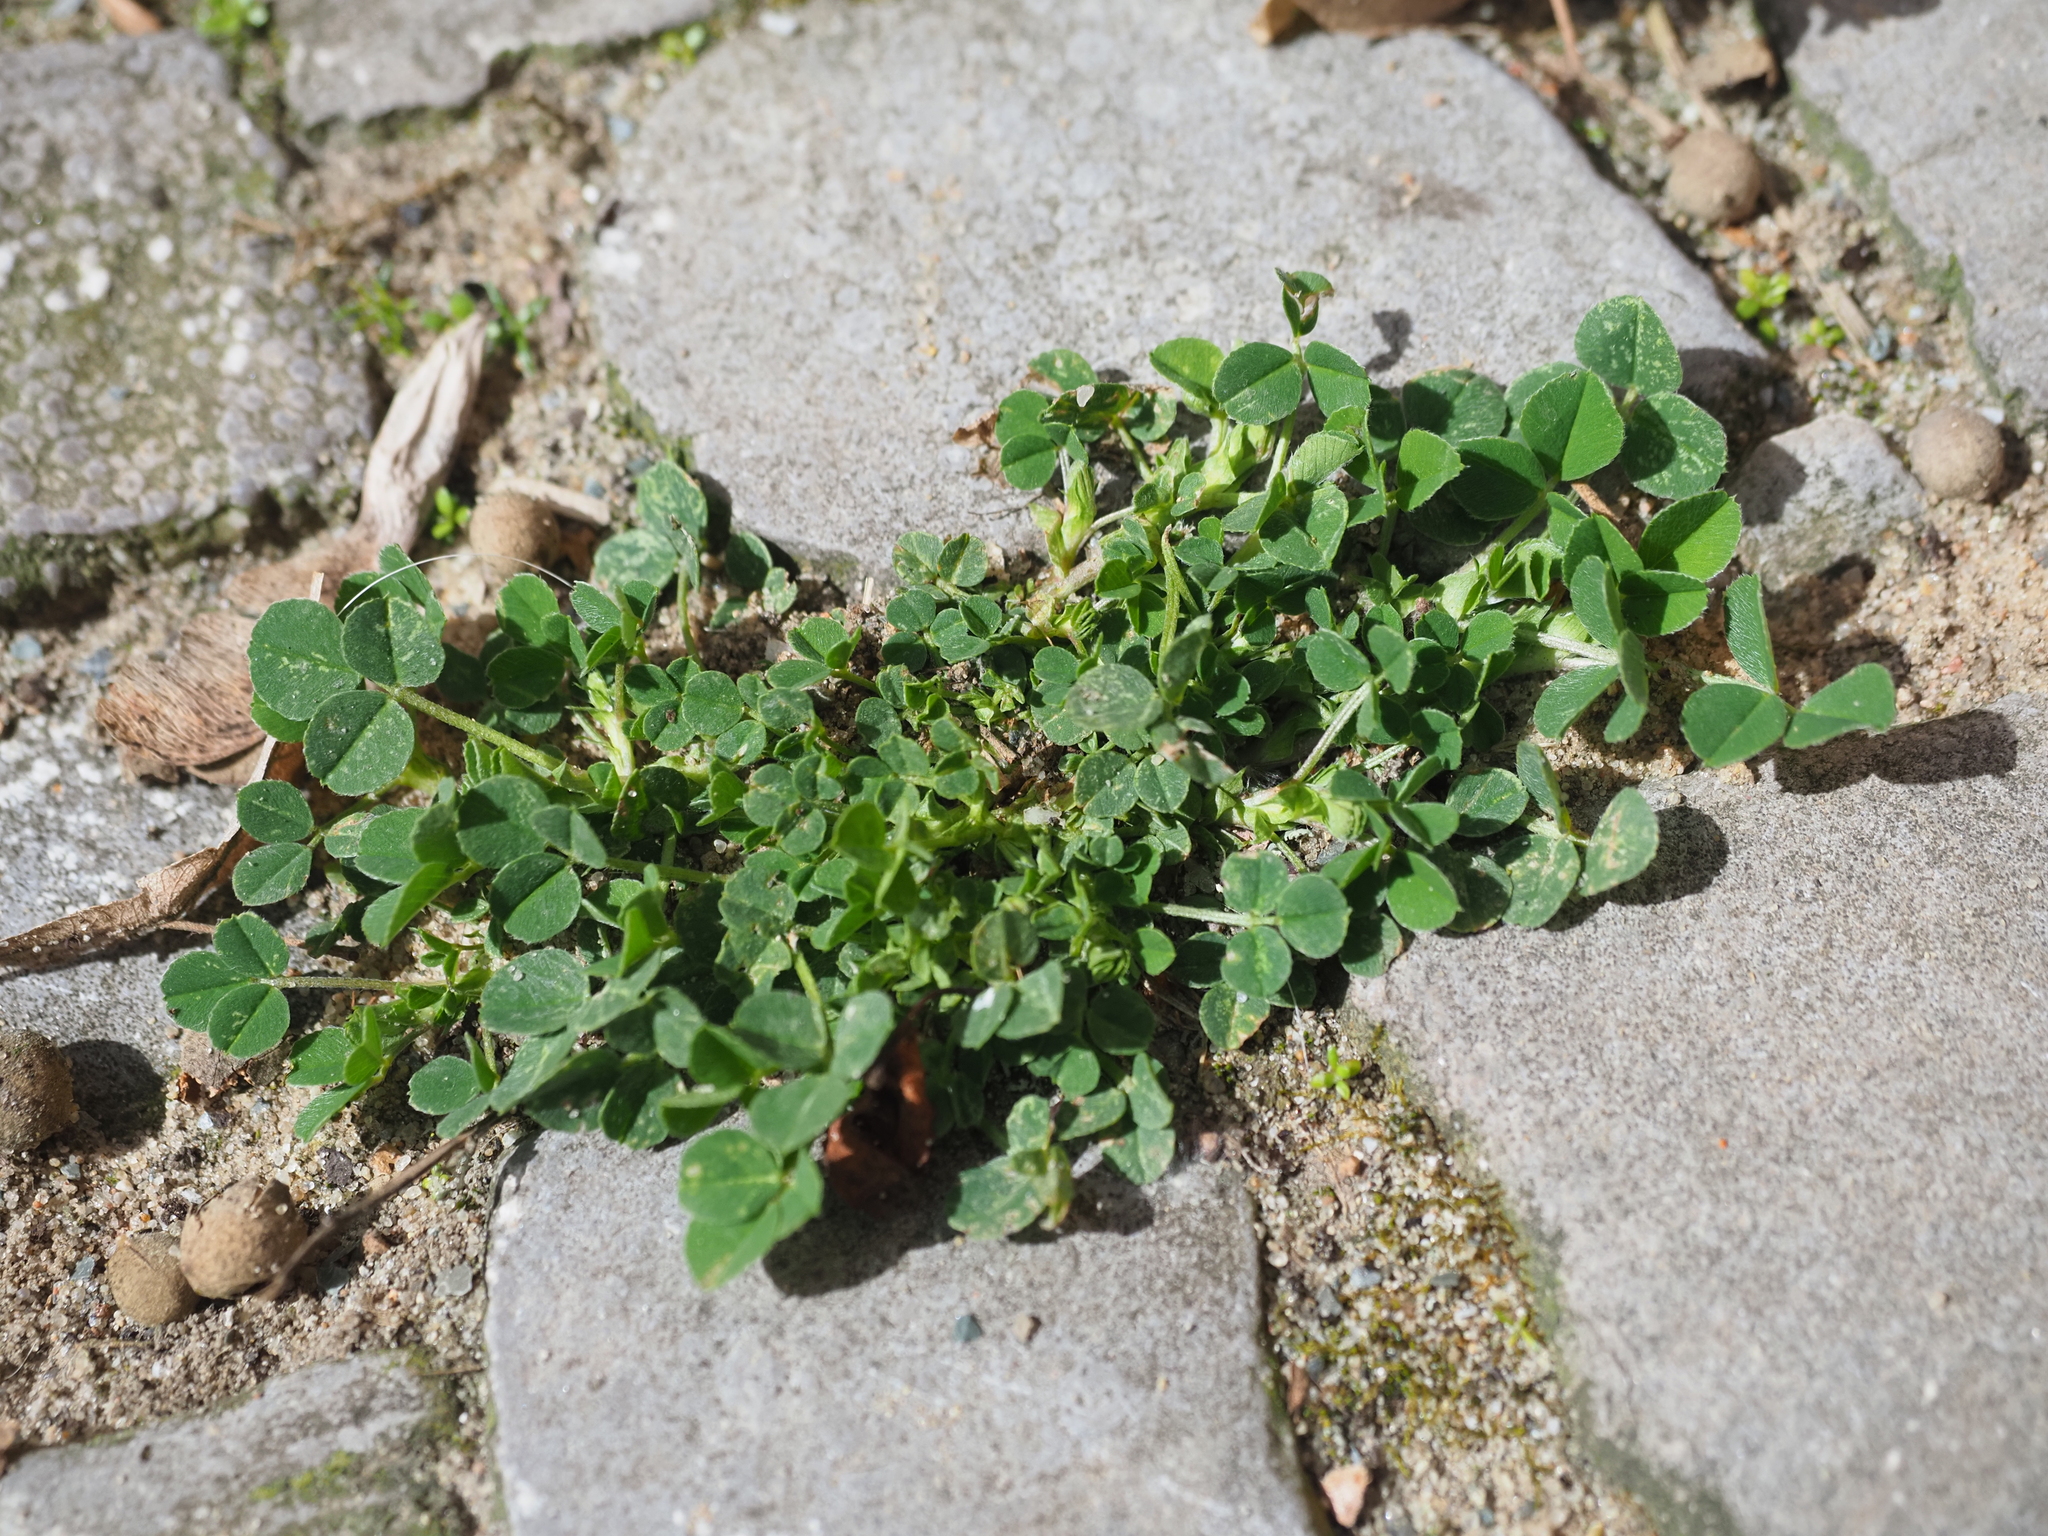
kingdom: Plantae
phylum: Tracheophyta
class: Magnoliopsida
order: Fabales
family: Fabaceae
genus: Medicago
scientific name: Medicago lupulina
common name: Black medick
